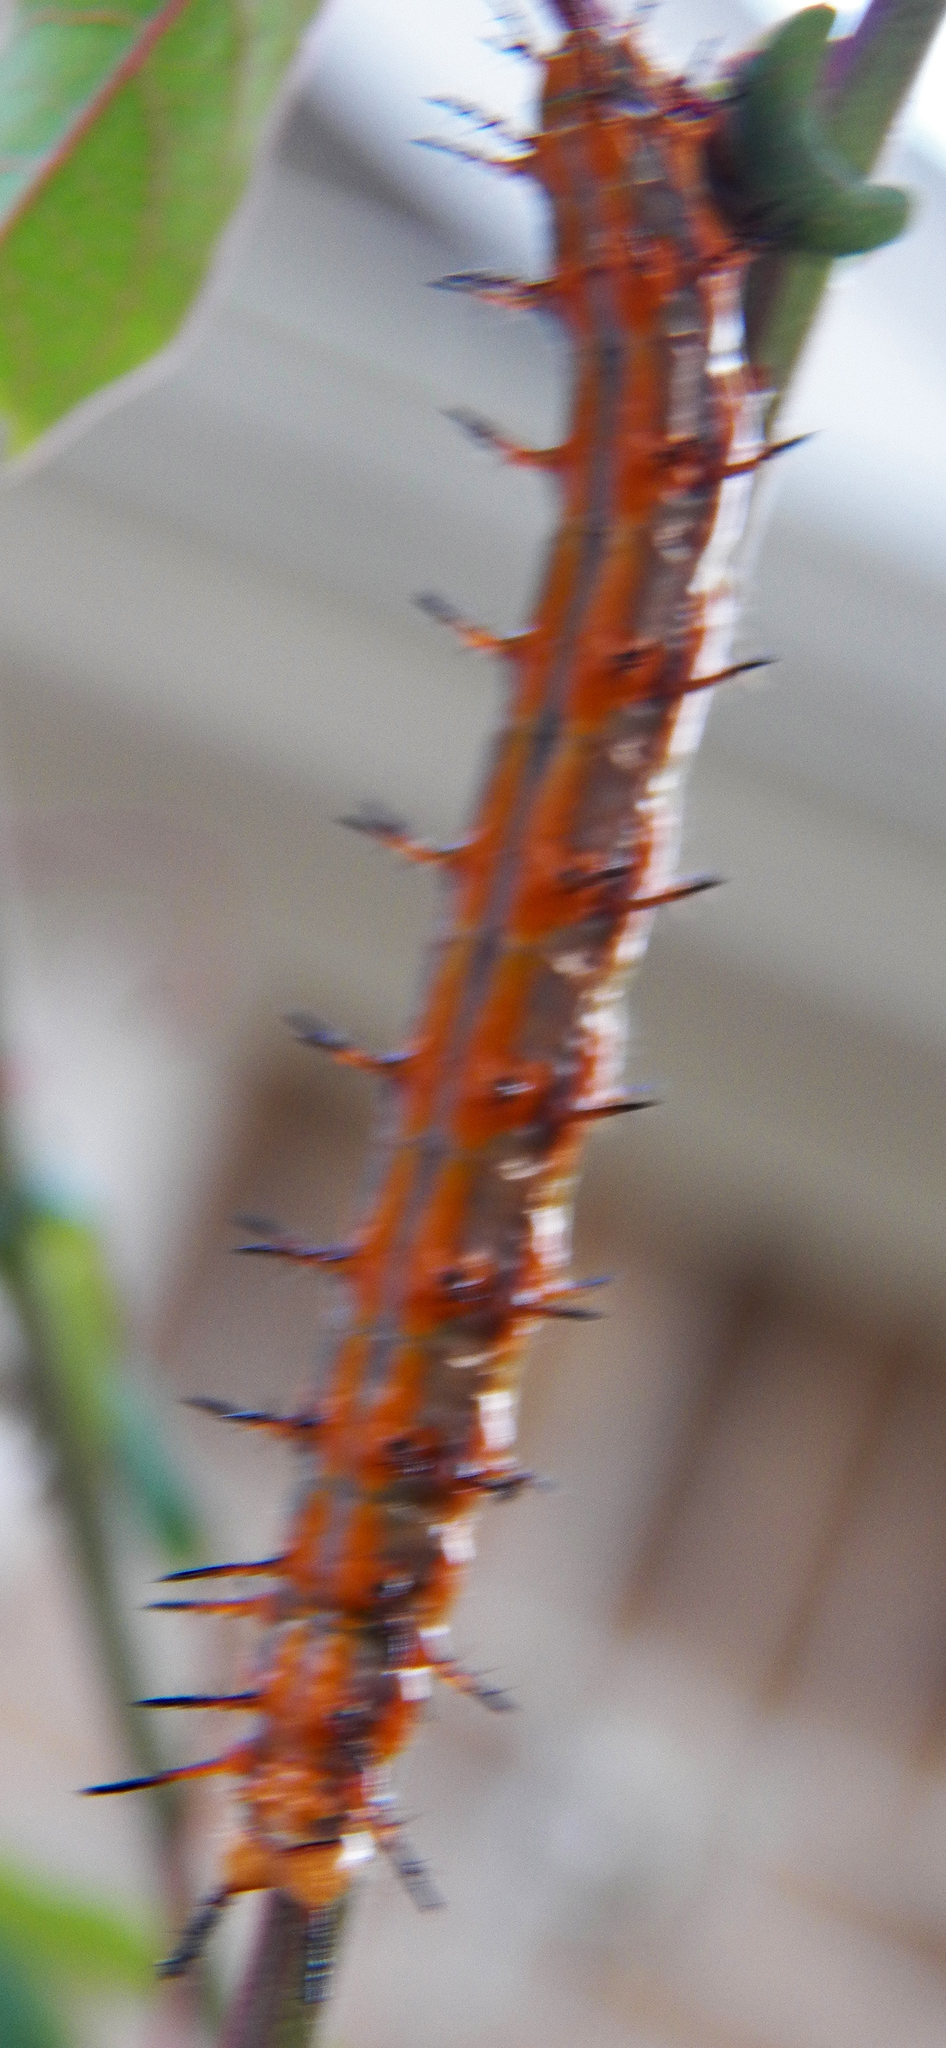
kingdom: Animalia
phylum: Arthropoda
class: Insecta
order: Lepidoptera
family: Nymphalidae
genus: Dione
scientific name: Dione vanillae
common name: Gulf fritillary
